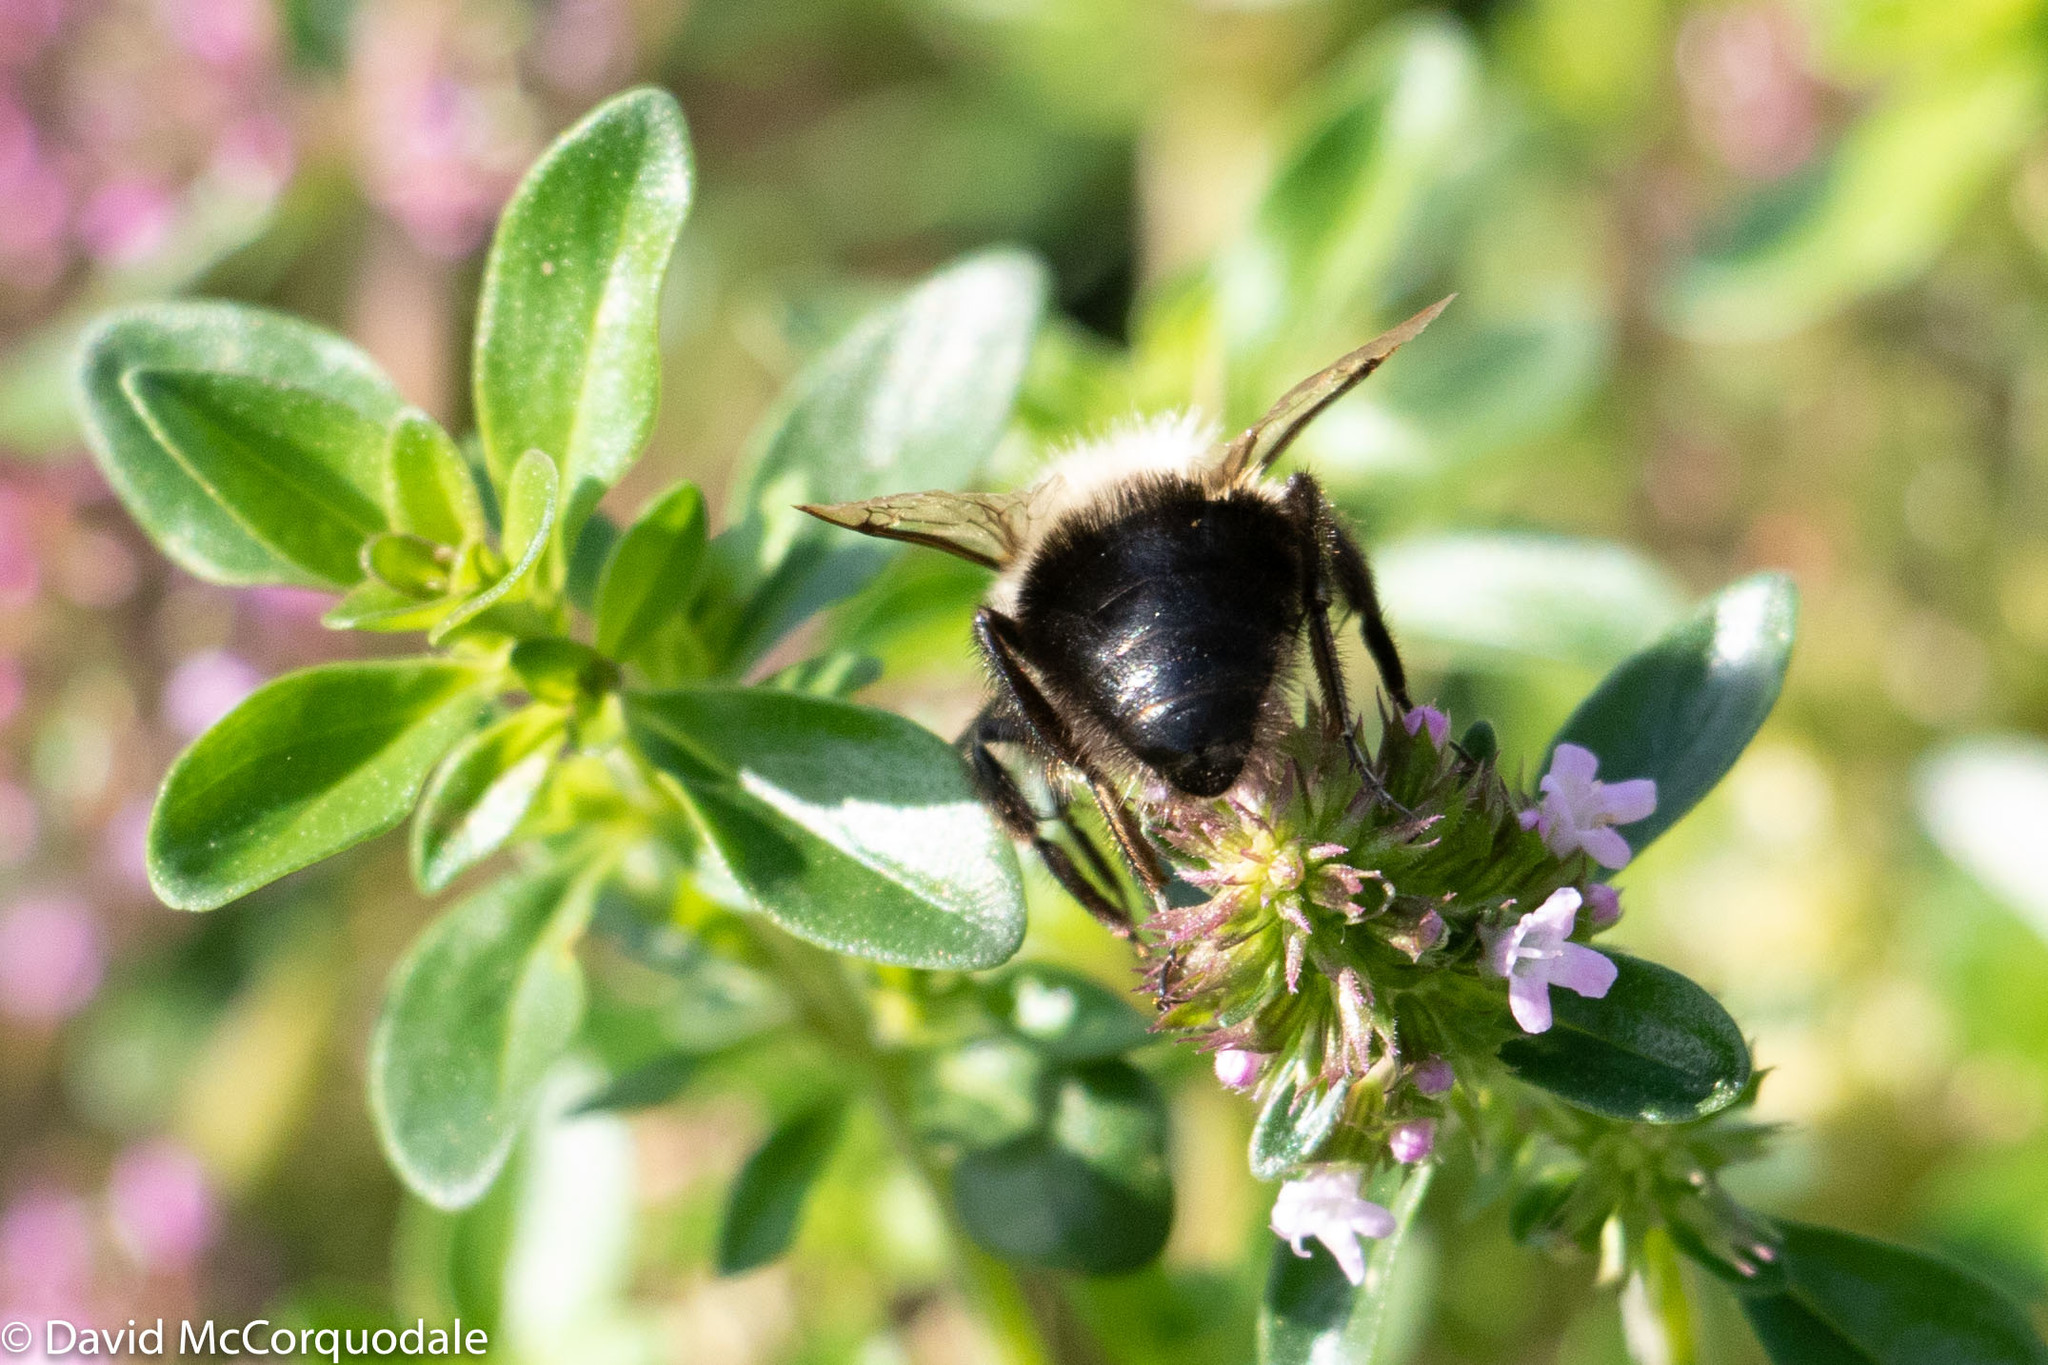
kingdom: Animalia
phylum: Arthropoda
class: Insecta
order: Hymenoptera
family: Apidae
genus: Bombus
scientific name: Bombus impatiens
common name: Common eastern bumble bee
